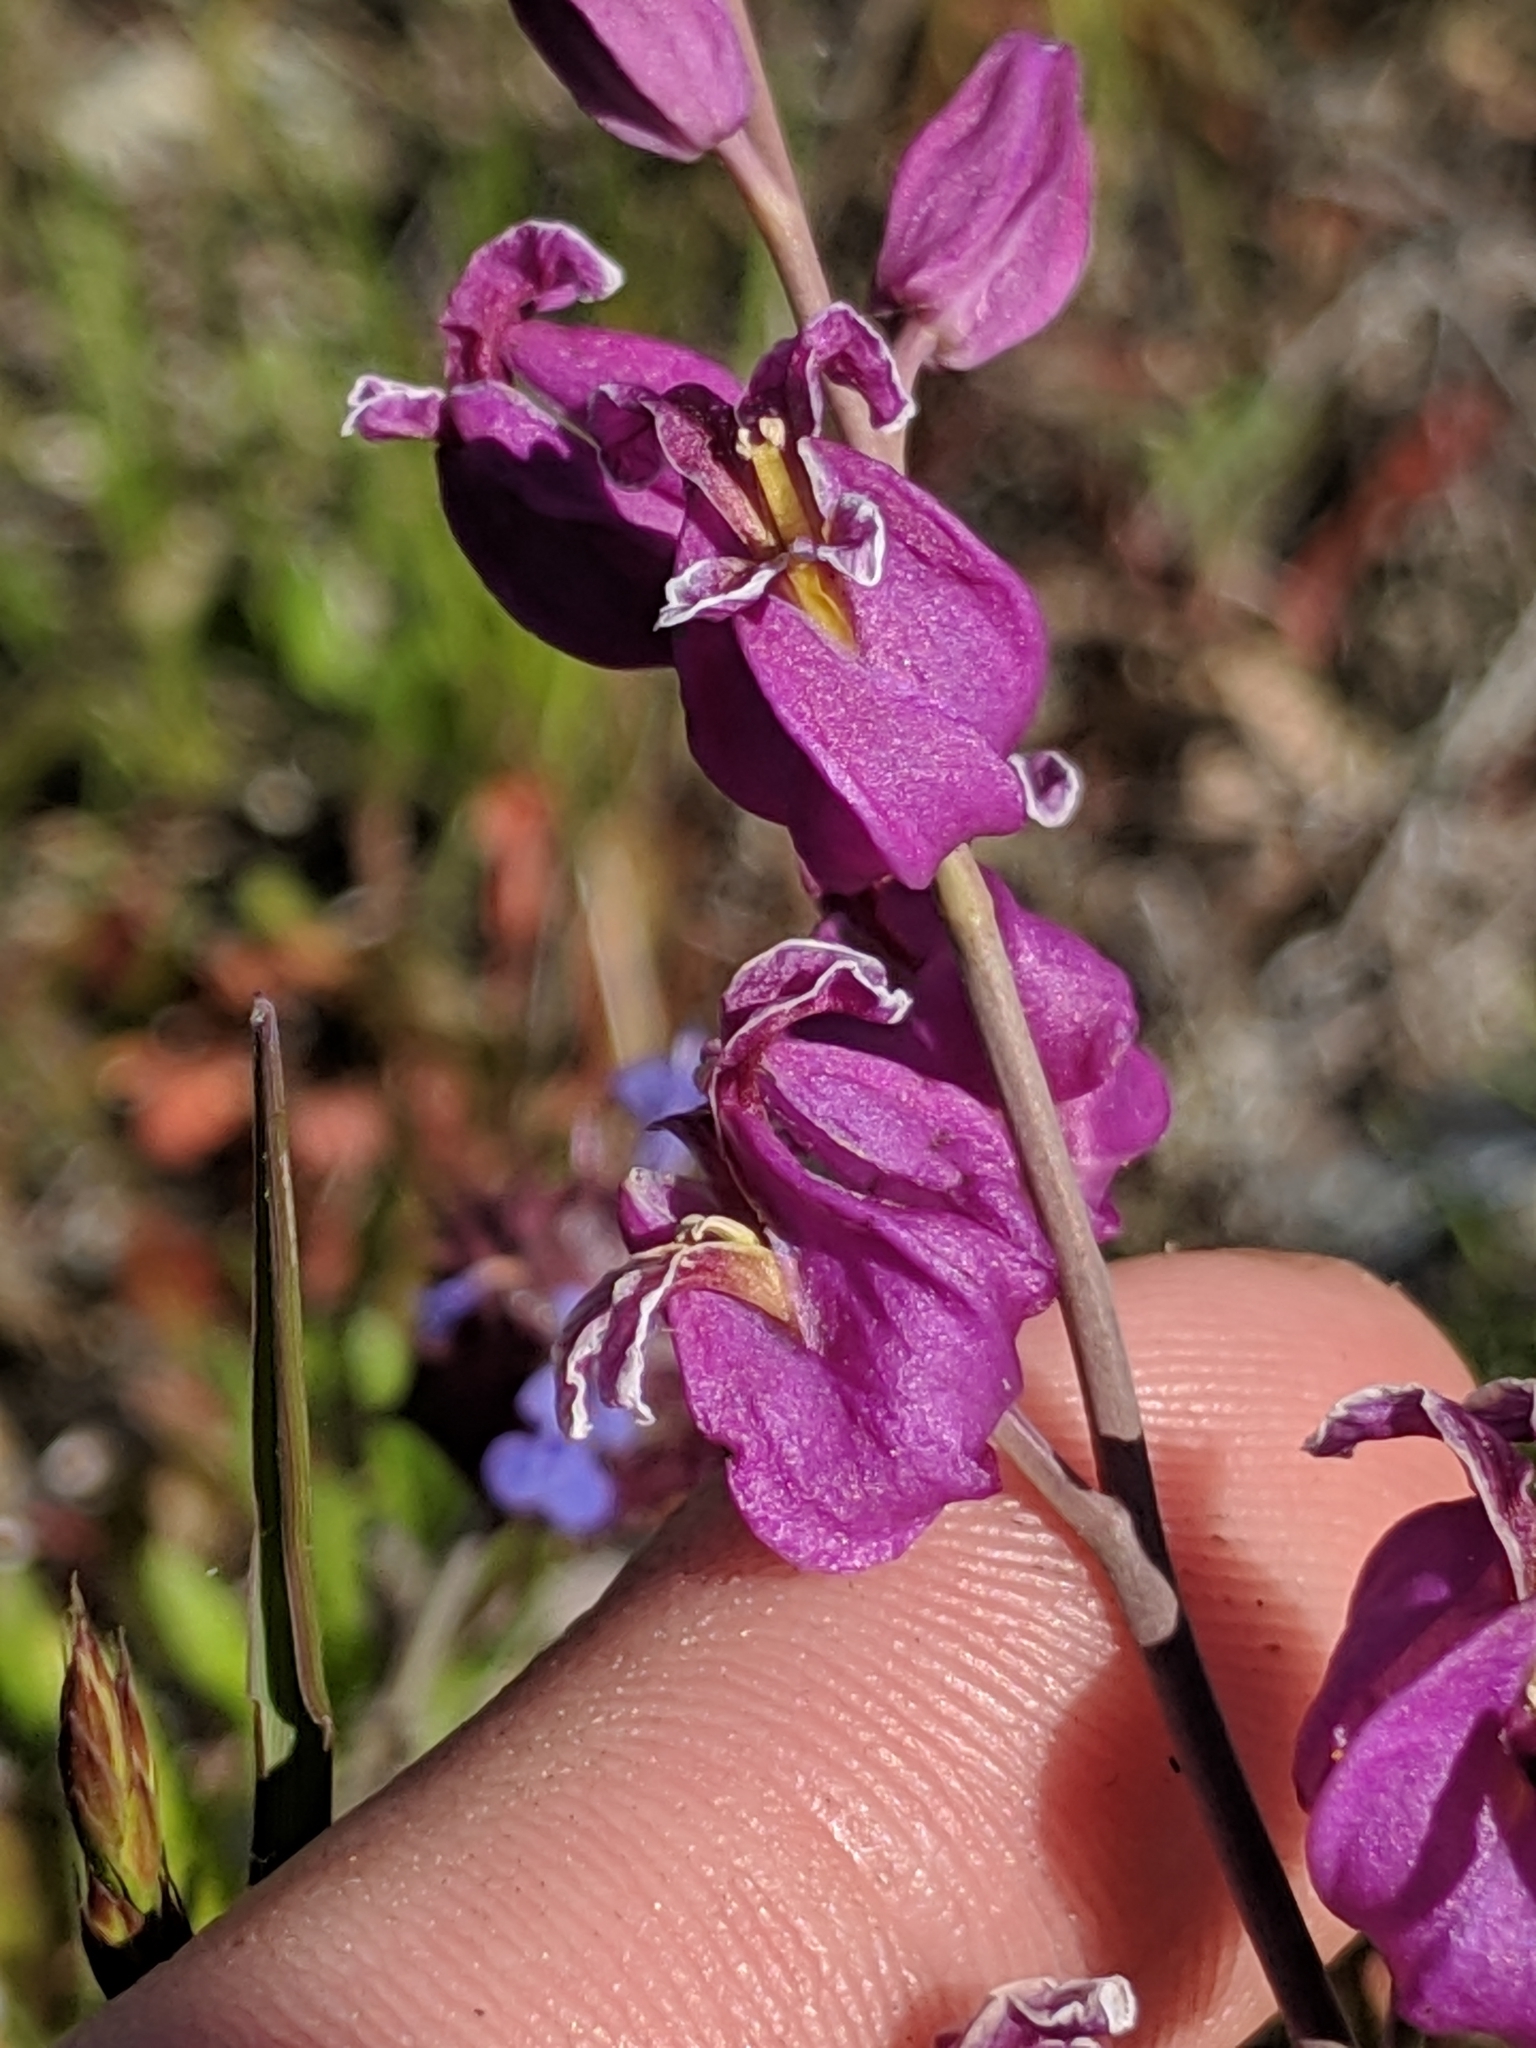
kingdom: Plantae
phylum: Tracheophyta
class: Magnoliopsida
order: Brassicales
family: Brassicaceae
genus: Streptanthus
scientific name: Streptanthus glandulosus
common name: Jewel-flower
